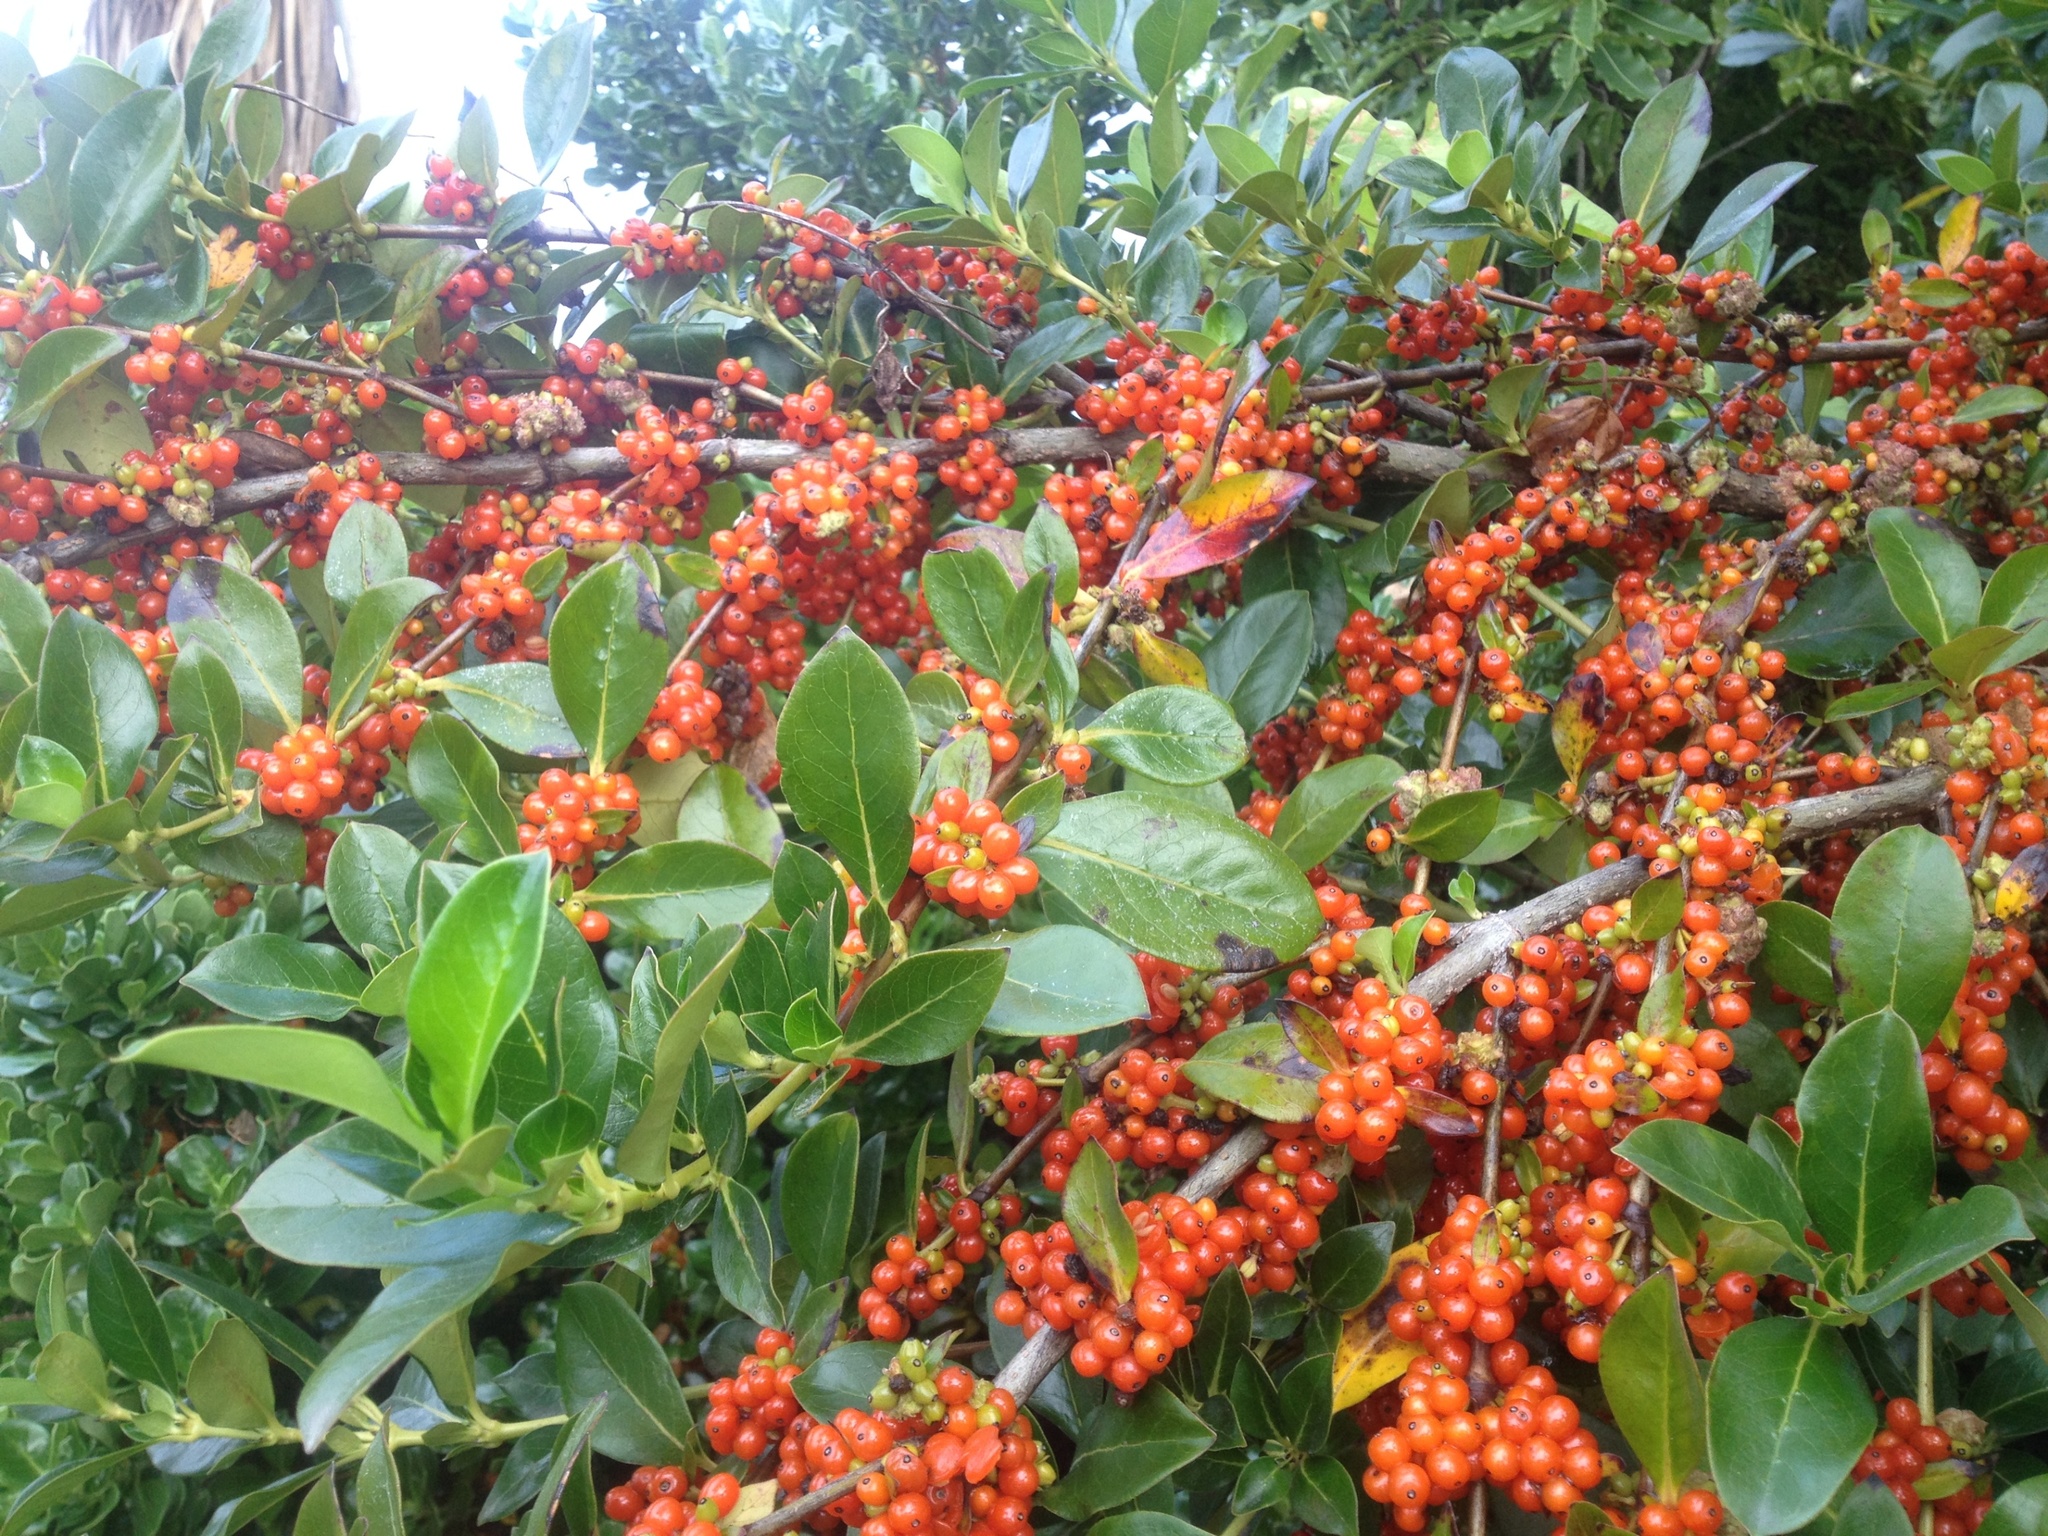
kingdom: Plantae
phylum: Tracheophyta
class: Magnoliopsida
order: Gentianales
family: Rubiaceae
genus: Coprosma
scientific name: Coprosma robusta
